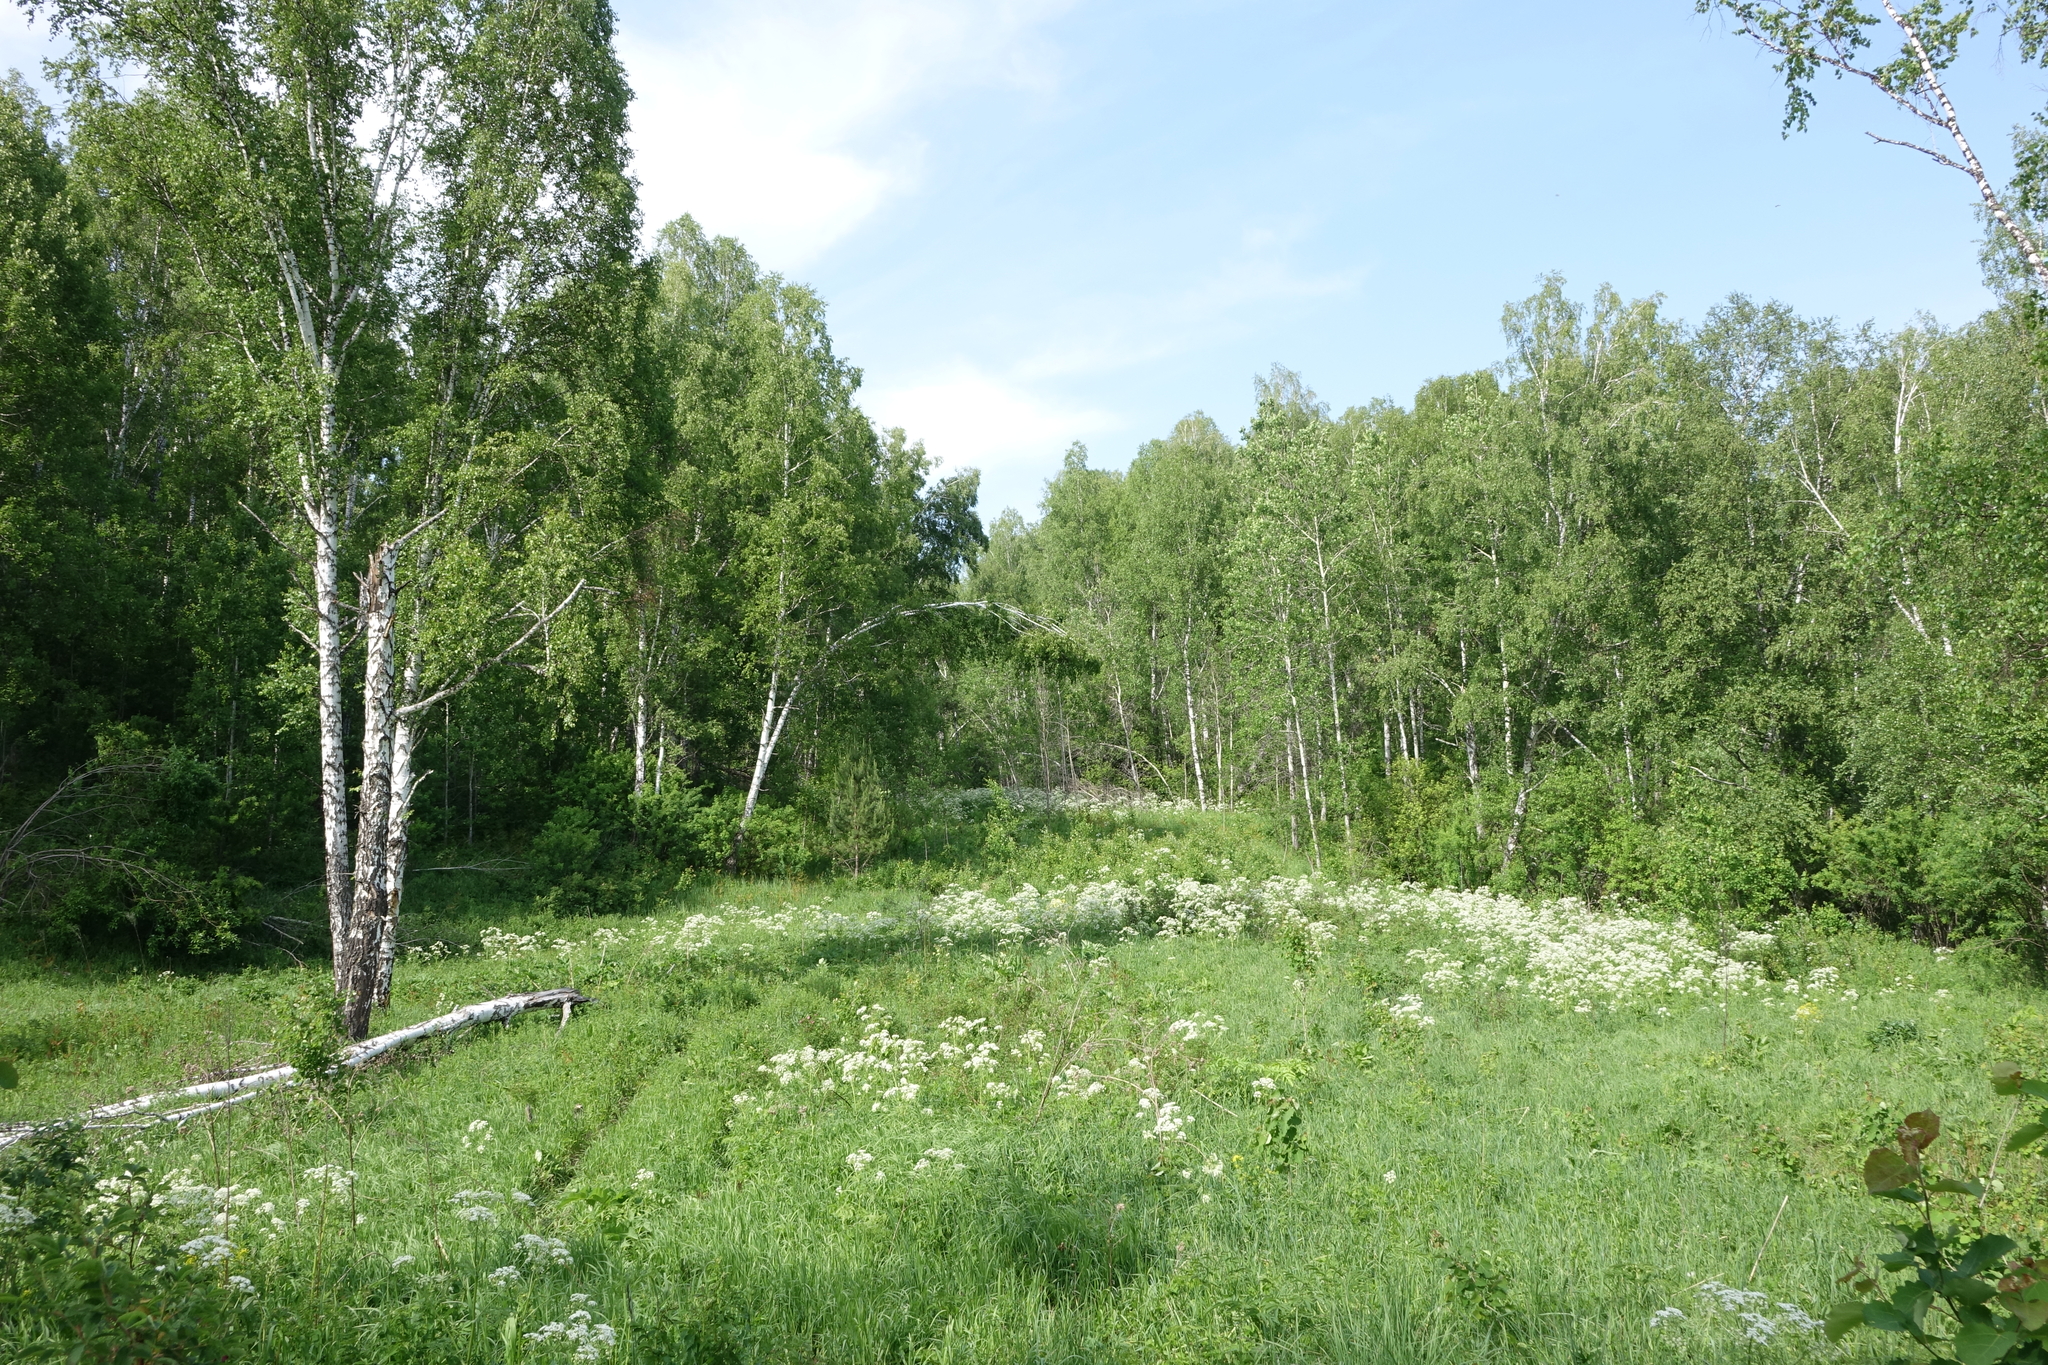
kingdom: Plantae
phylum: Tracheophyta
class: Magnoliopsida
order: Fagales
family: Betulaceae
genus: Betula
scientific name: Betula pendula
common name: Silver birch
